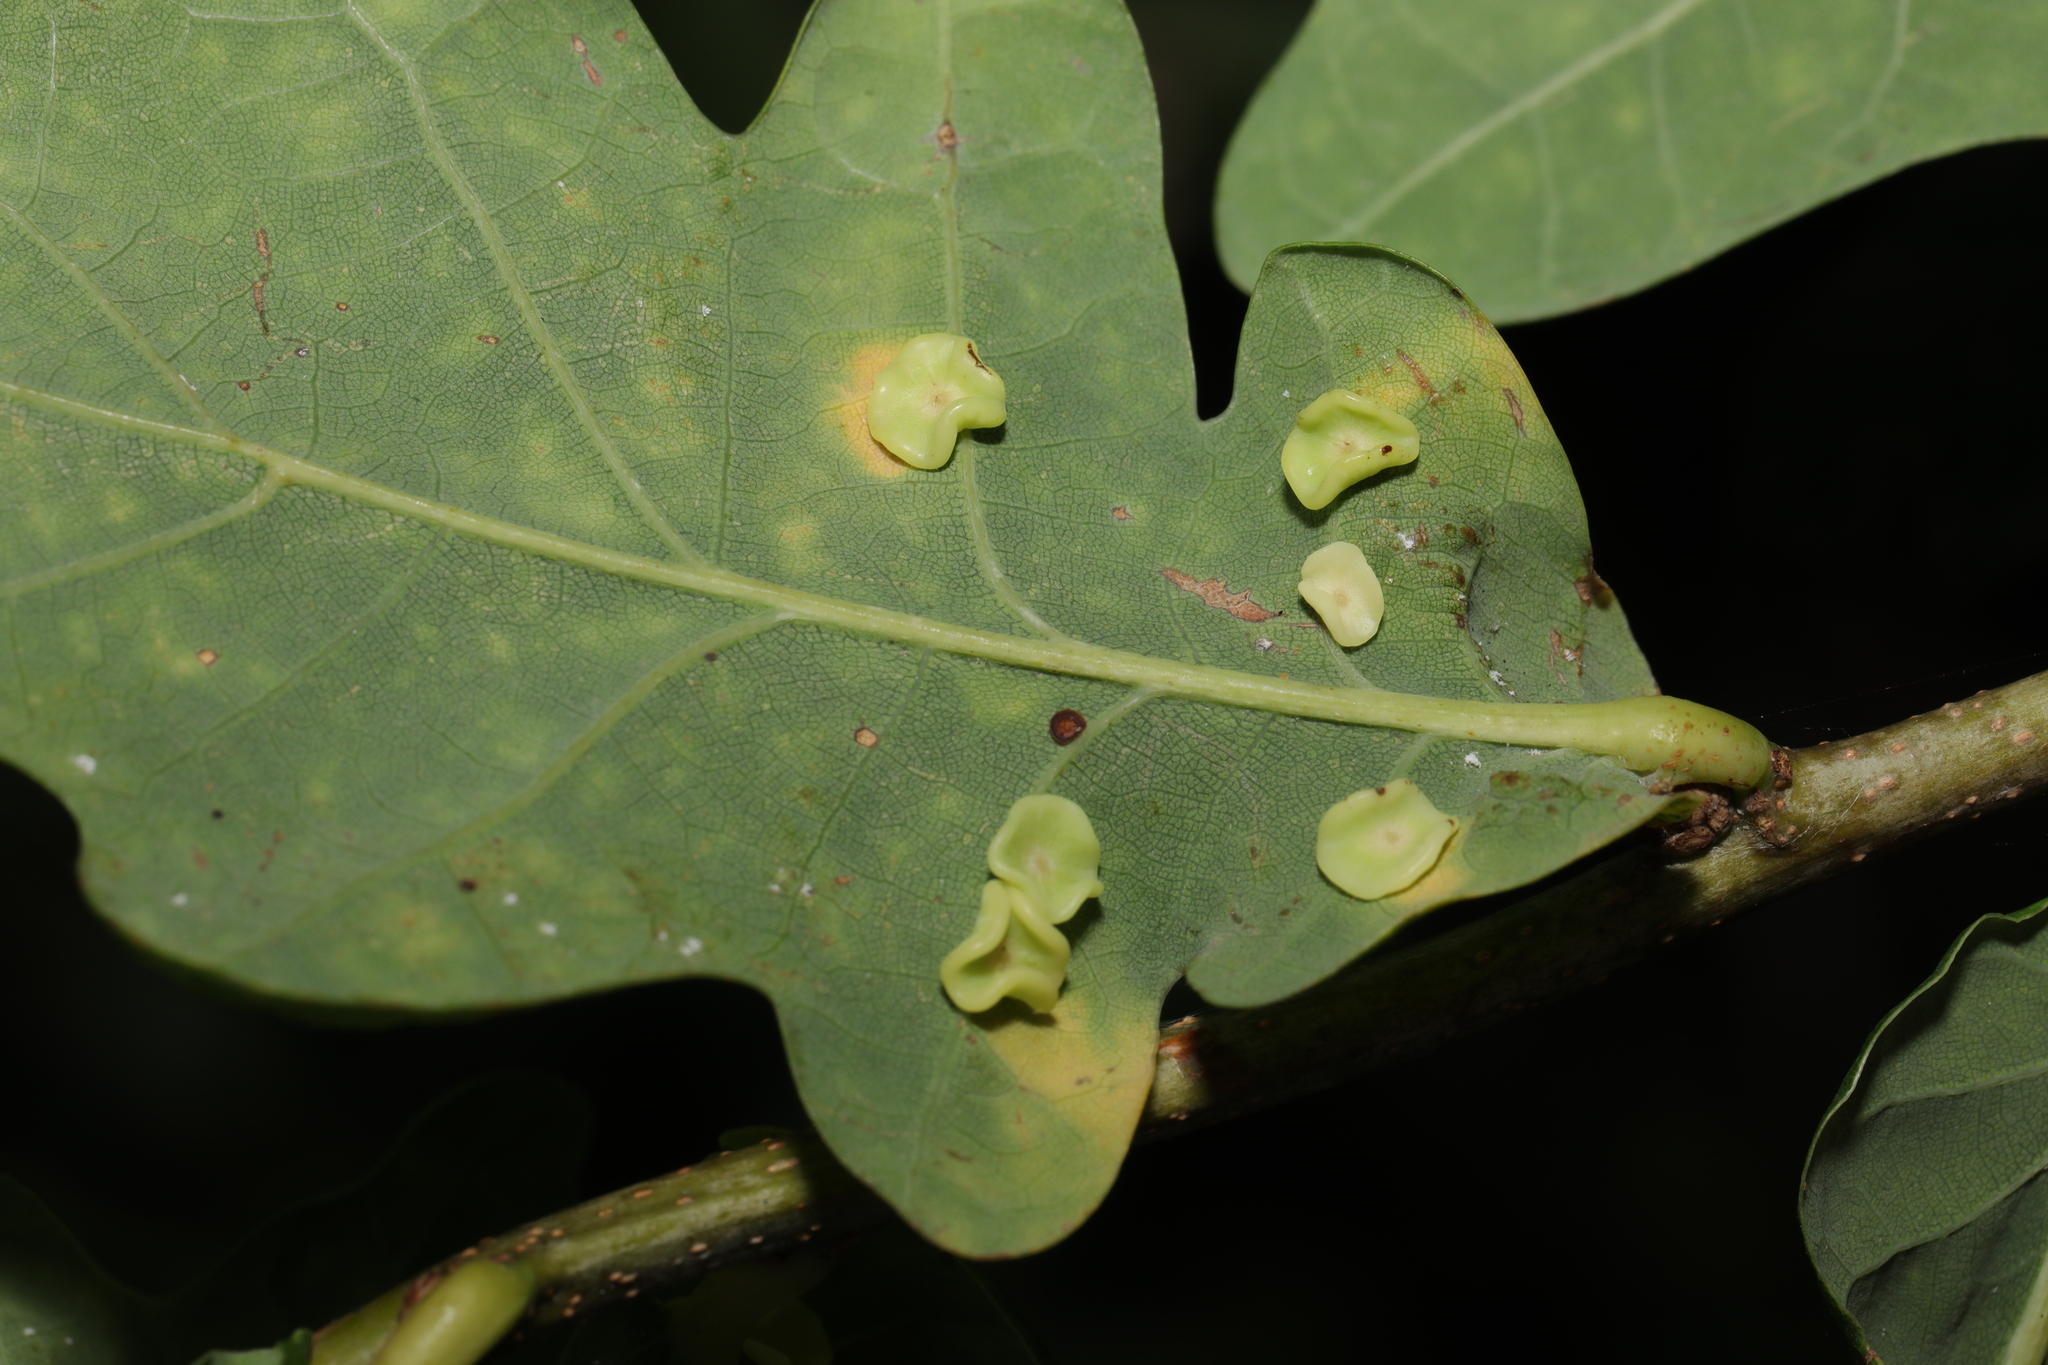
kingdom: Animalia
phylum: Arthropoda
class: Insecta
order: Hymenoptera
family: Cynipidae
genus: Neuroterus
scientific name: Neuroterus albipes
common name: Smooth spangle gall
